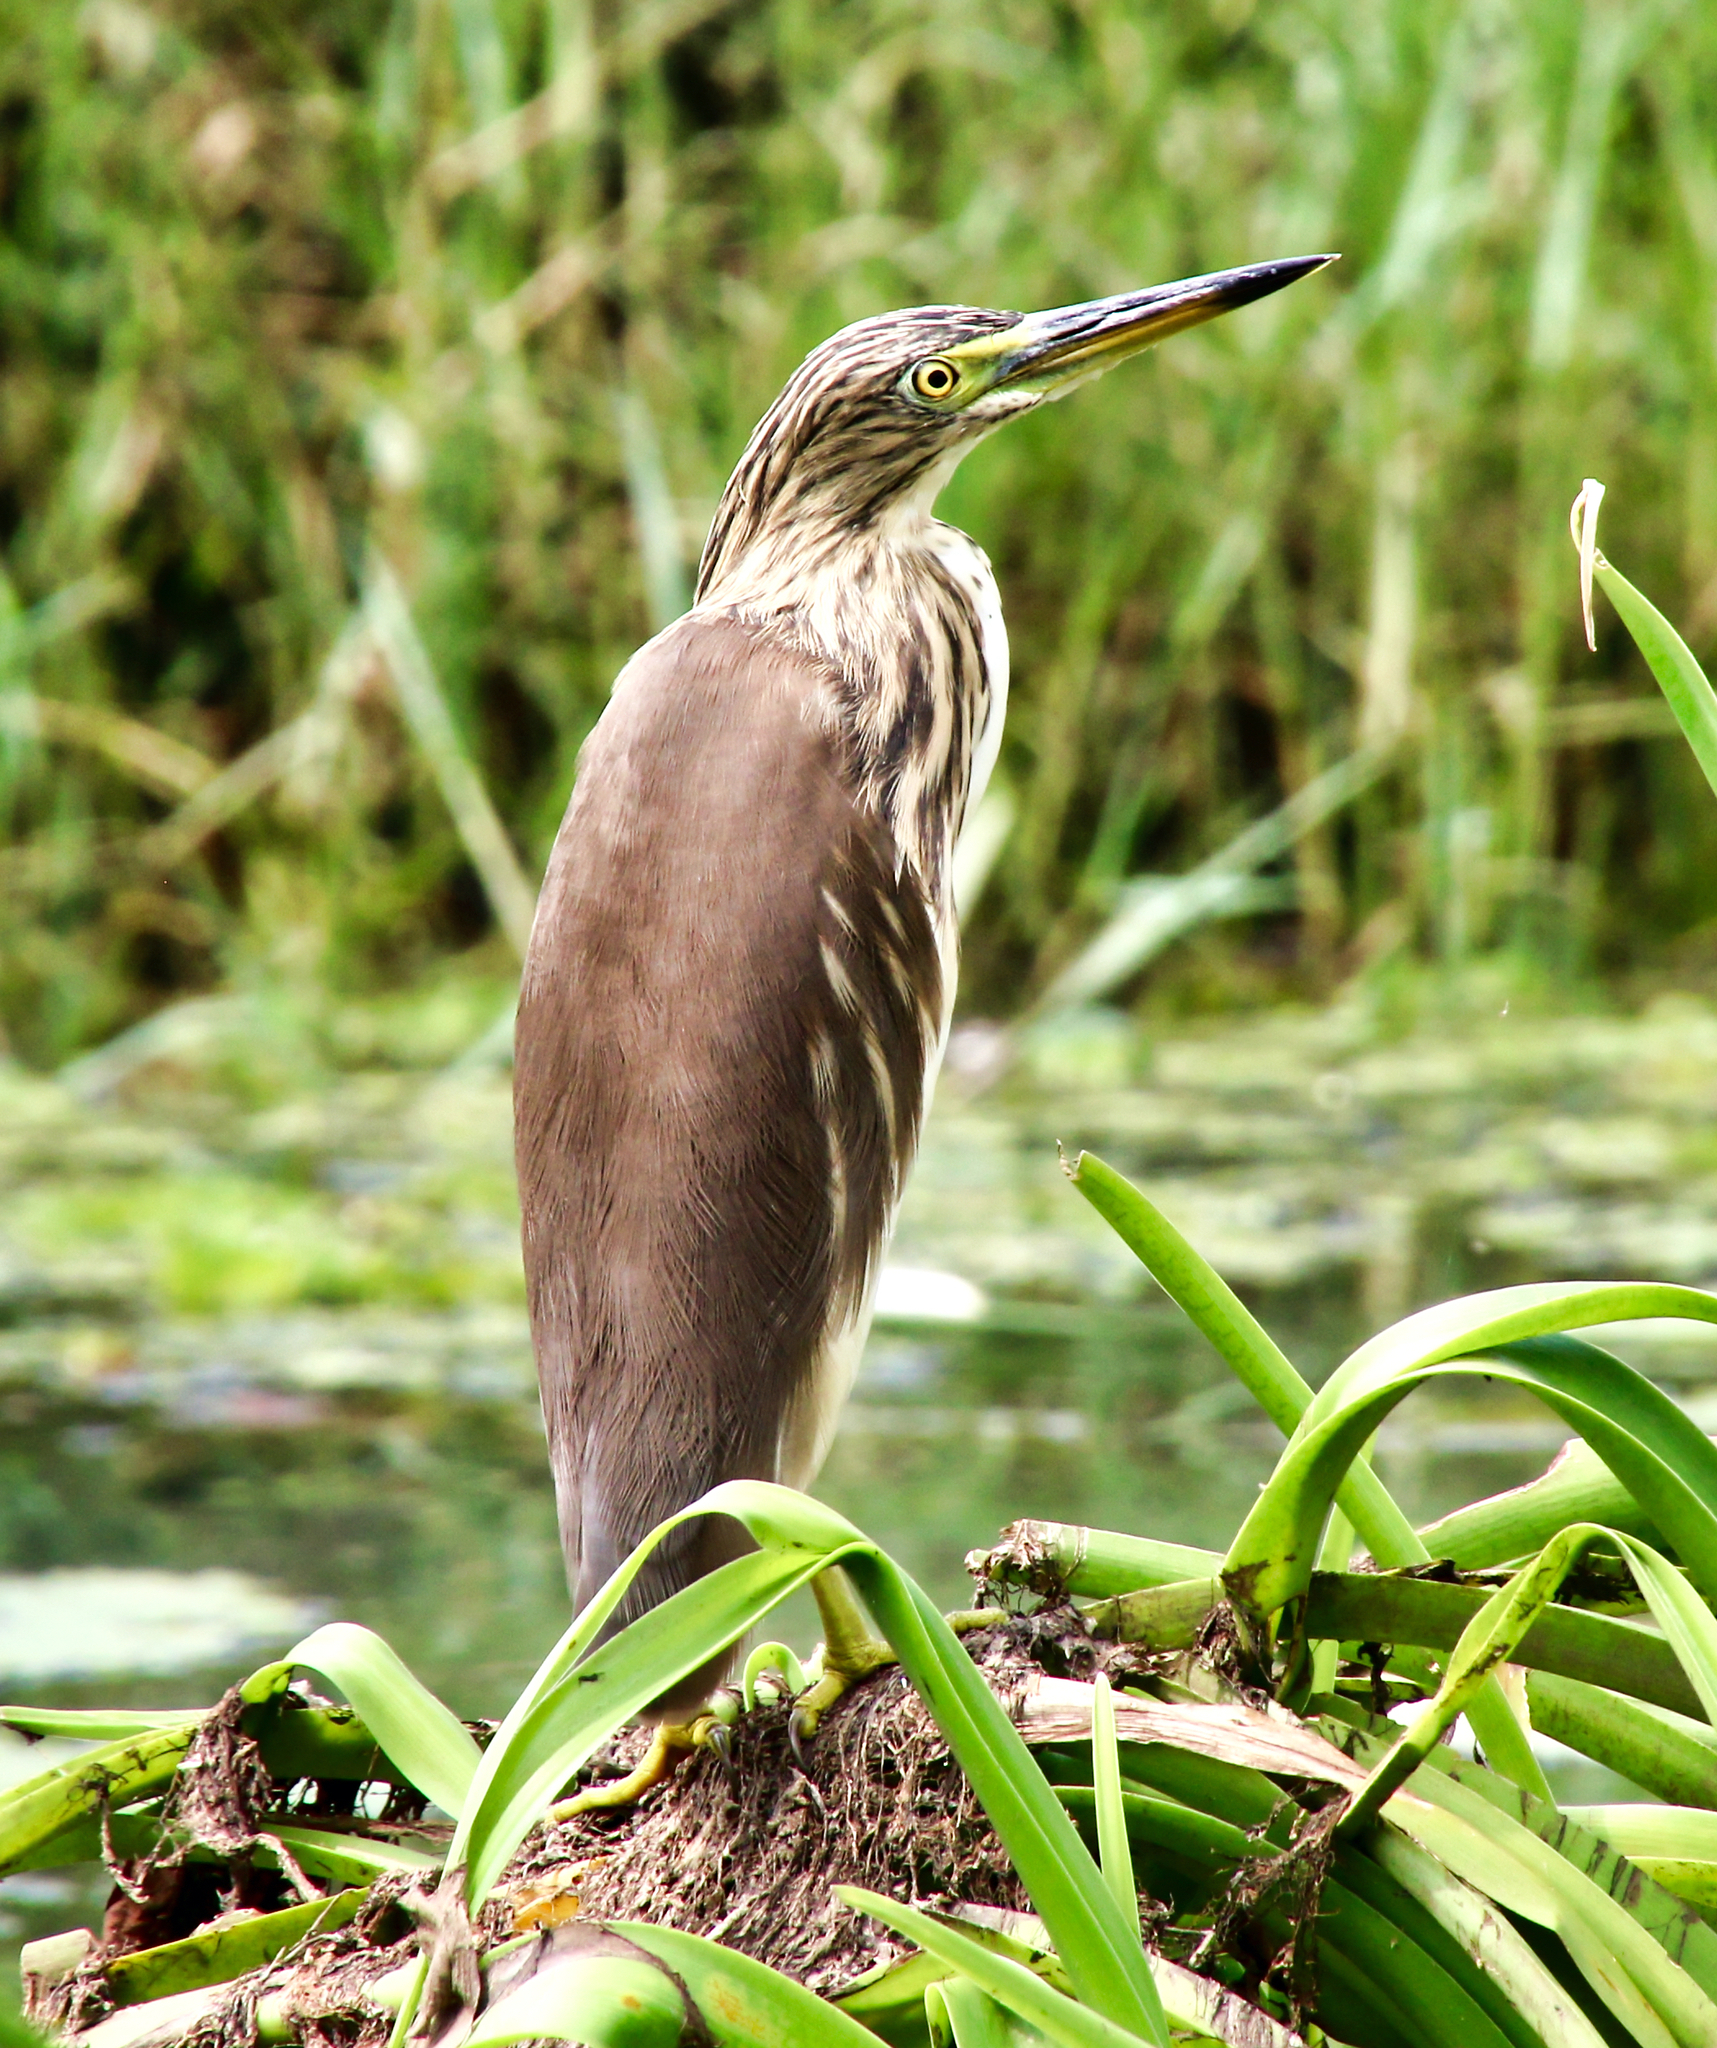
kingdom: Animalia
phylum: Chordata
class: Aves
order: Pelecaniformes
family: Ardeidae
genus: Ardeola
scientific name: Ardeola grayii
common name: Indian pond heron
